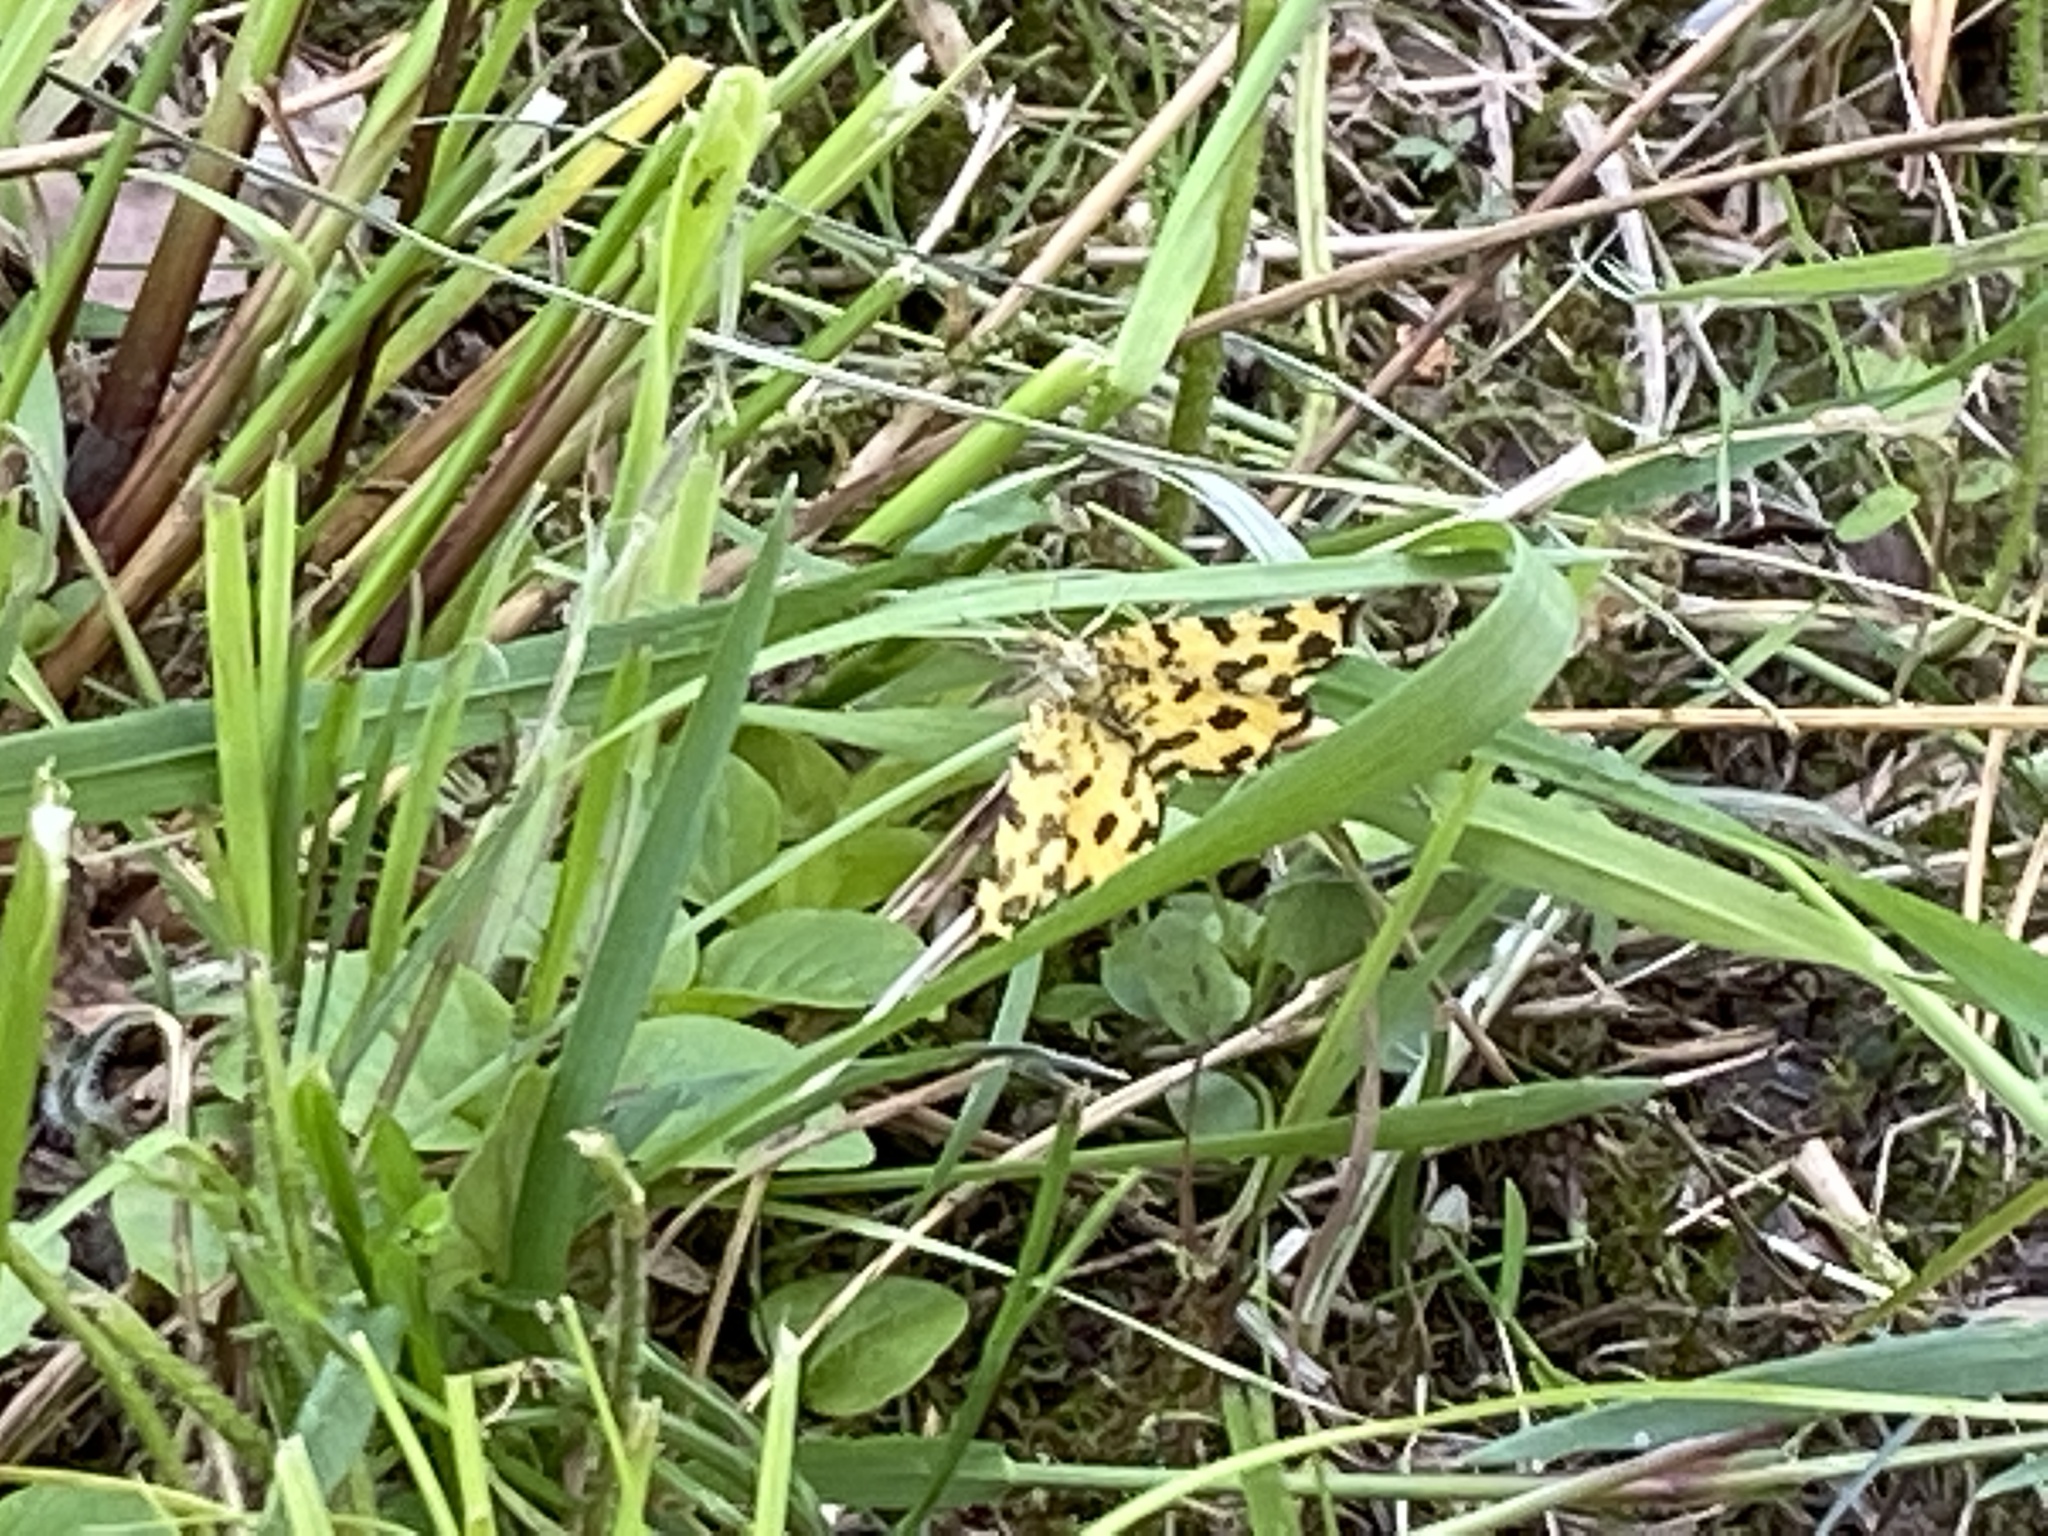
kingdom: Animalia
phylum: Arthropoda
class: Insecta
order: Lepidoptera
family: Geometridae
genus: Pseudopanthera
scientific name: Pseudopanthera macularia
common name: Speckled yellow
